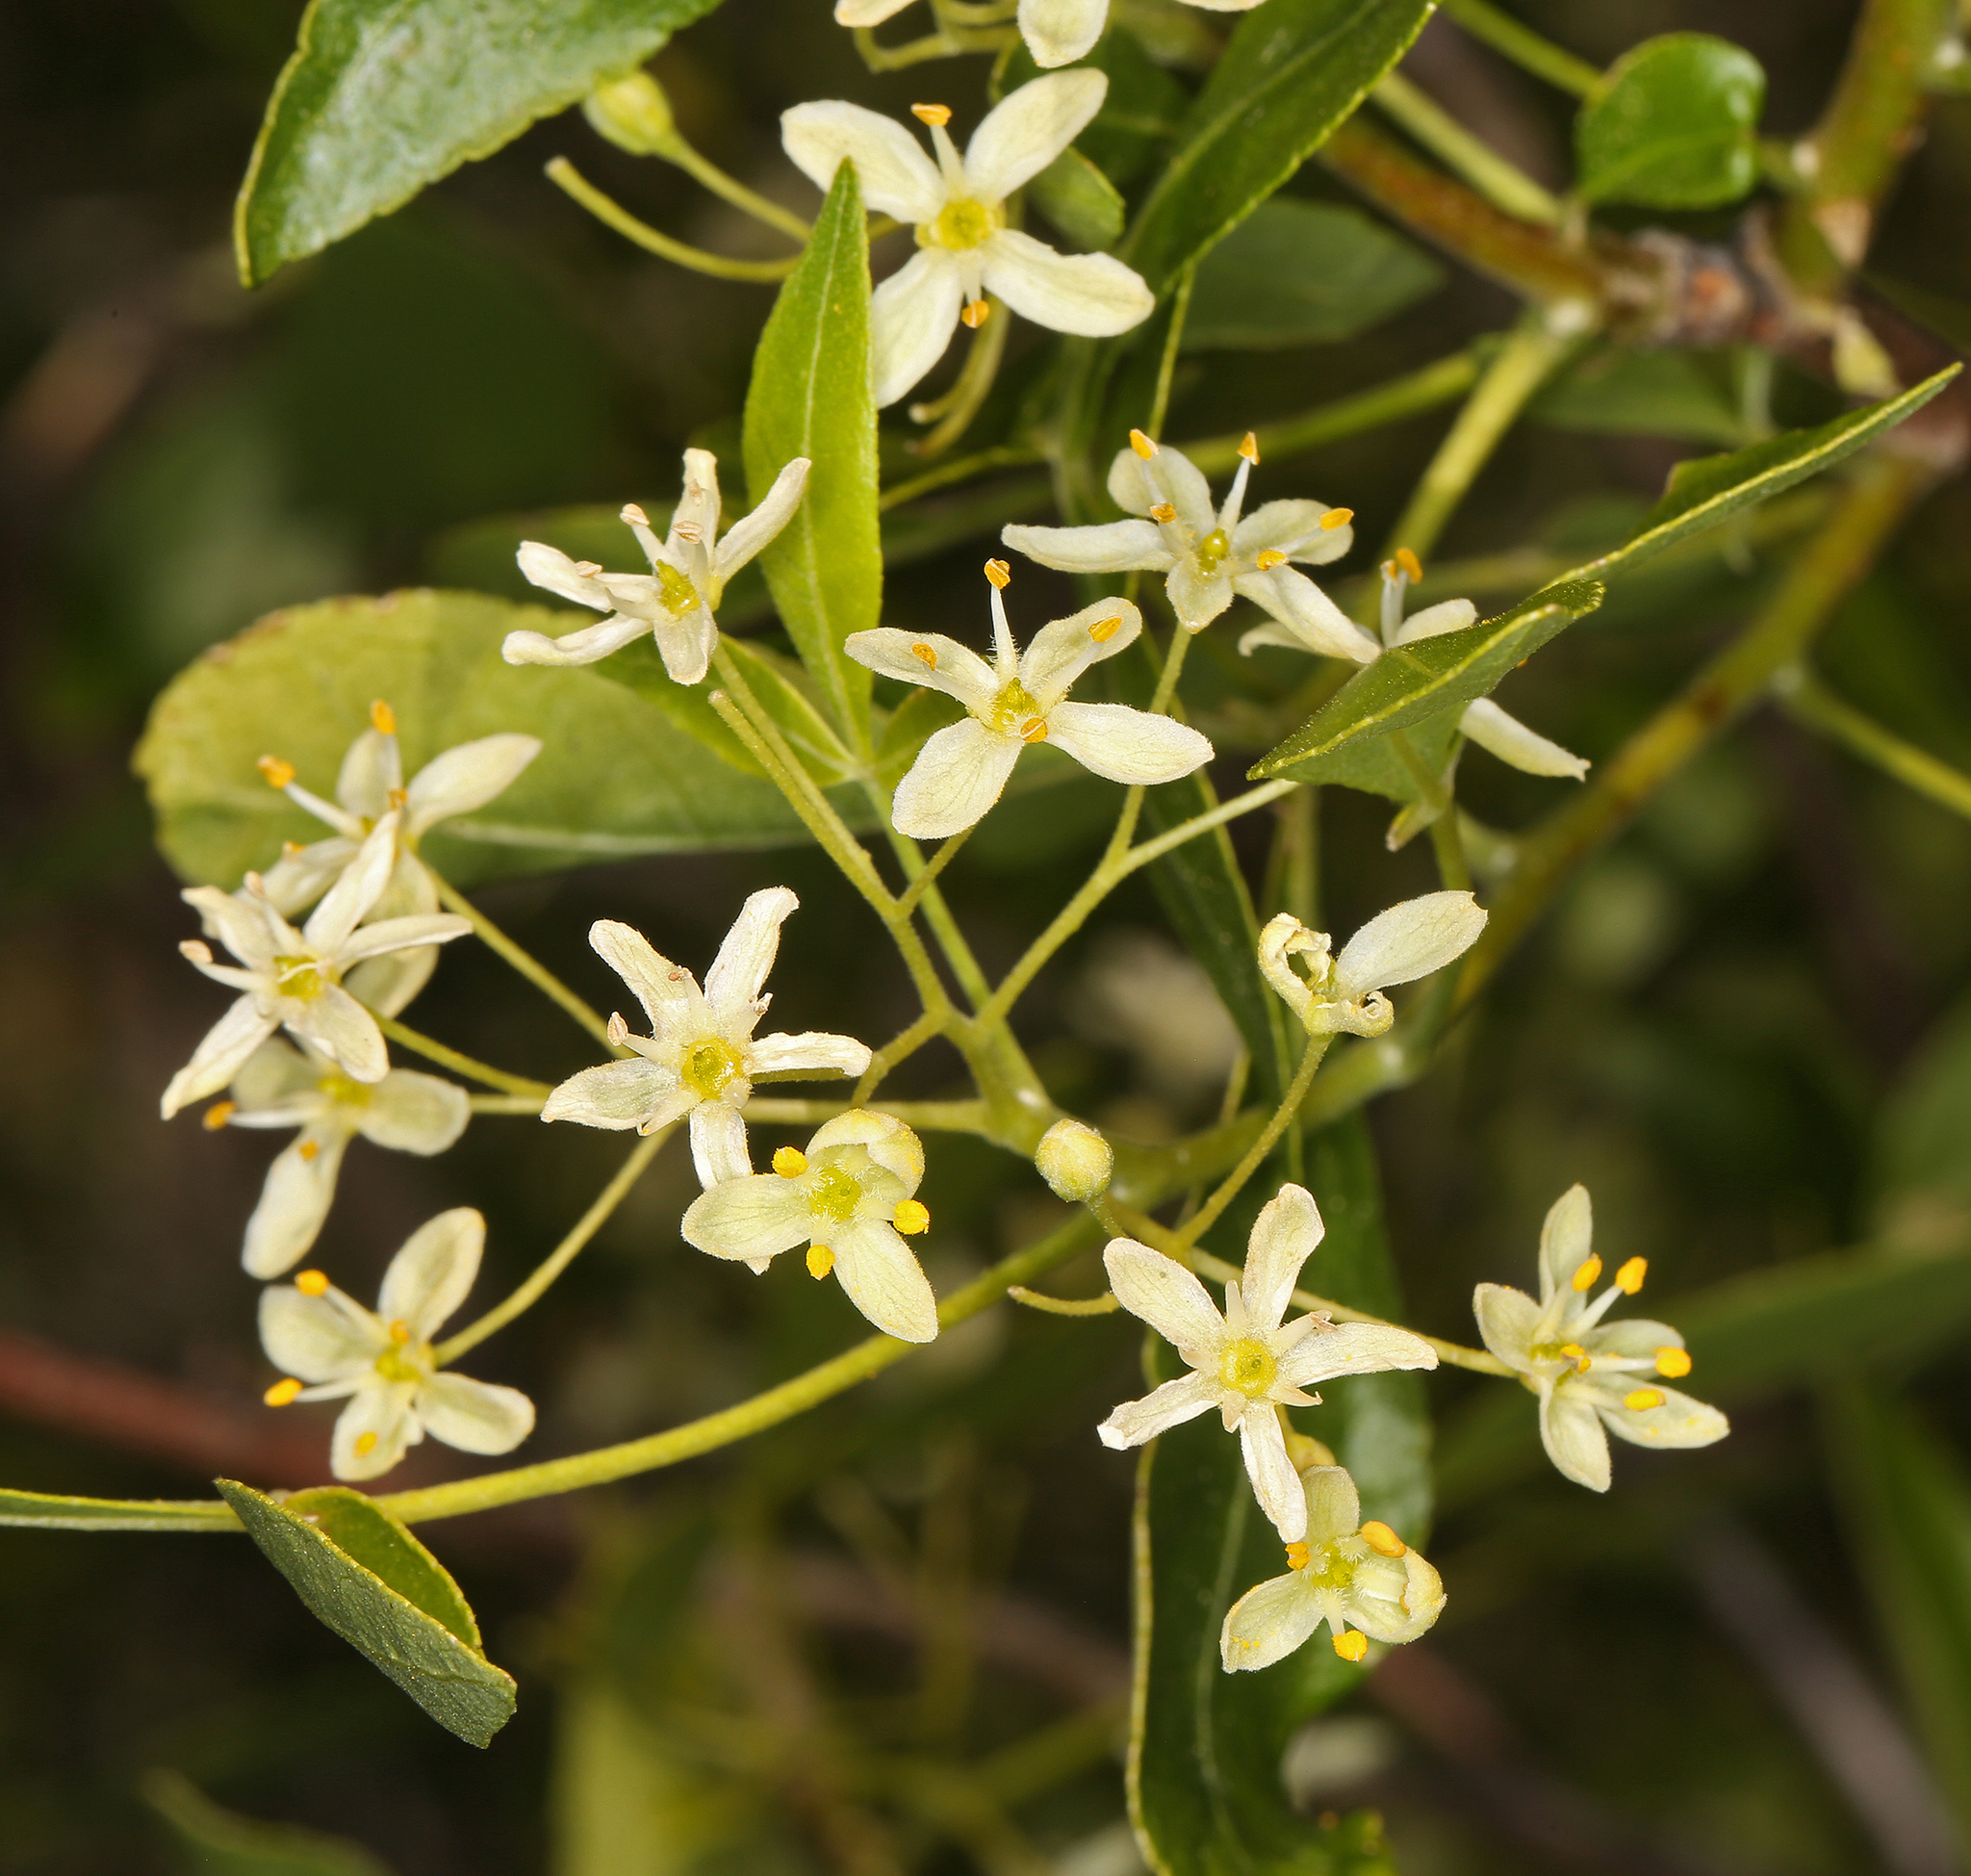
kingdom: Plantae
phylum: Tracheophyta
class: Magnoliopsida
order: Sapindales
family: Rutaceae
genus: Ptelea
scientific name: Ptelea crenulata
